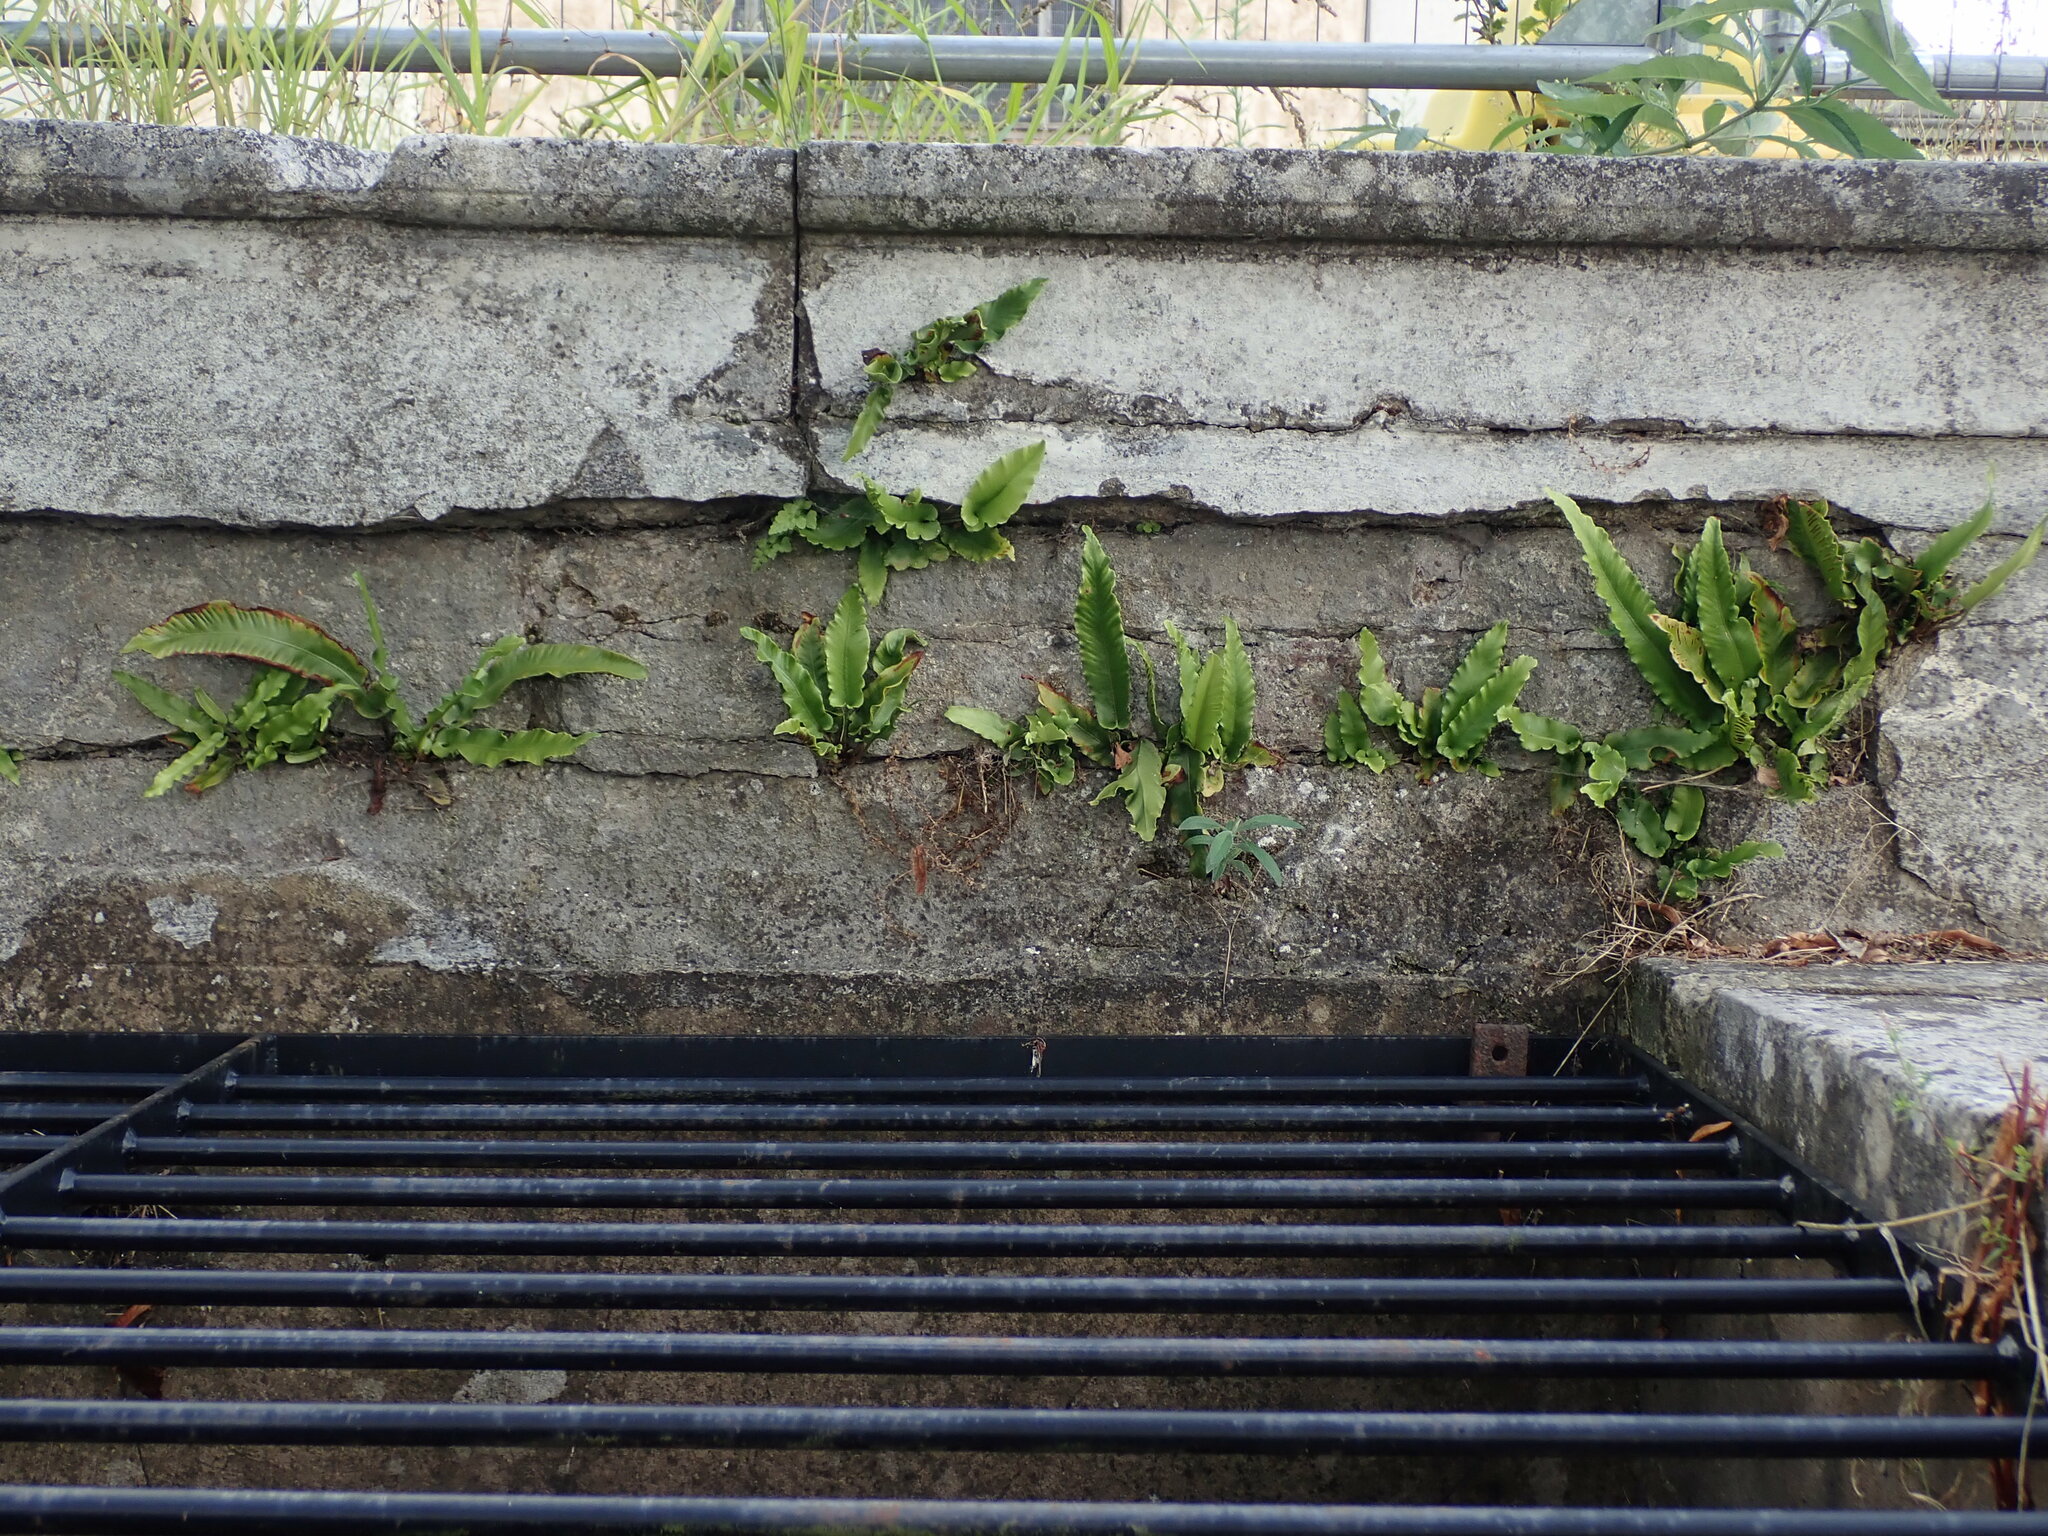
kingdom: Plantae
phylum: Tracheophyta
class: Polypodiopsida
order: Polypodiales
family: Aspleniaceae
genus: Asplenium
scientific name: Asplenium scolopendrium
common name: Hart's-tongue fern
